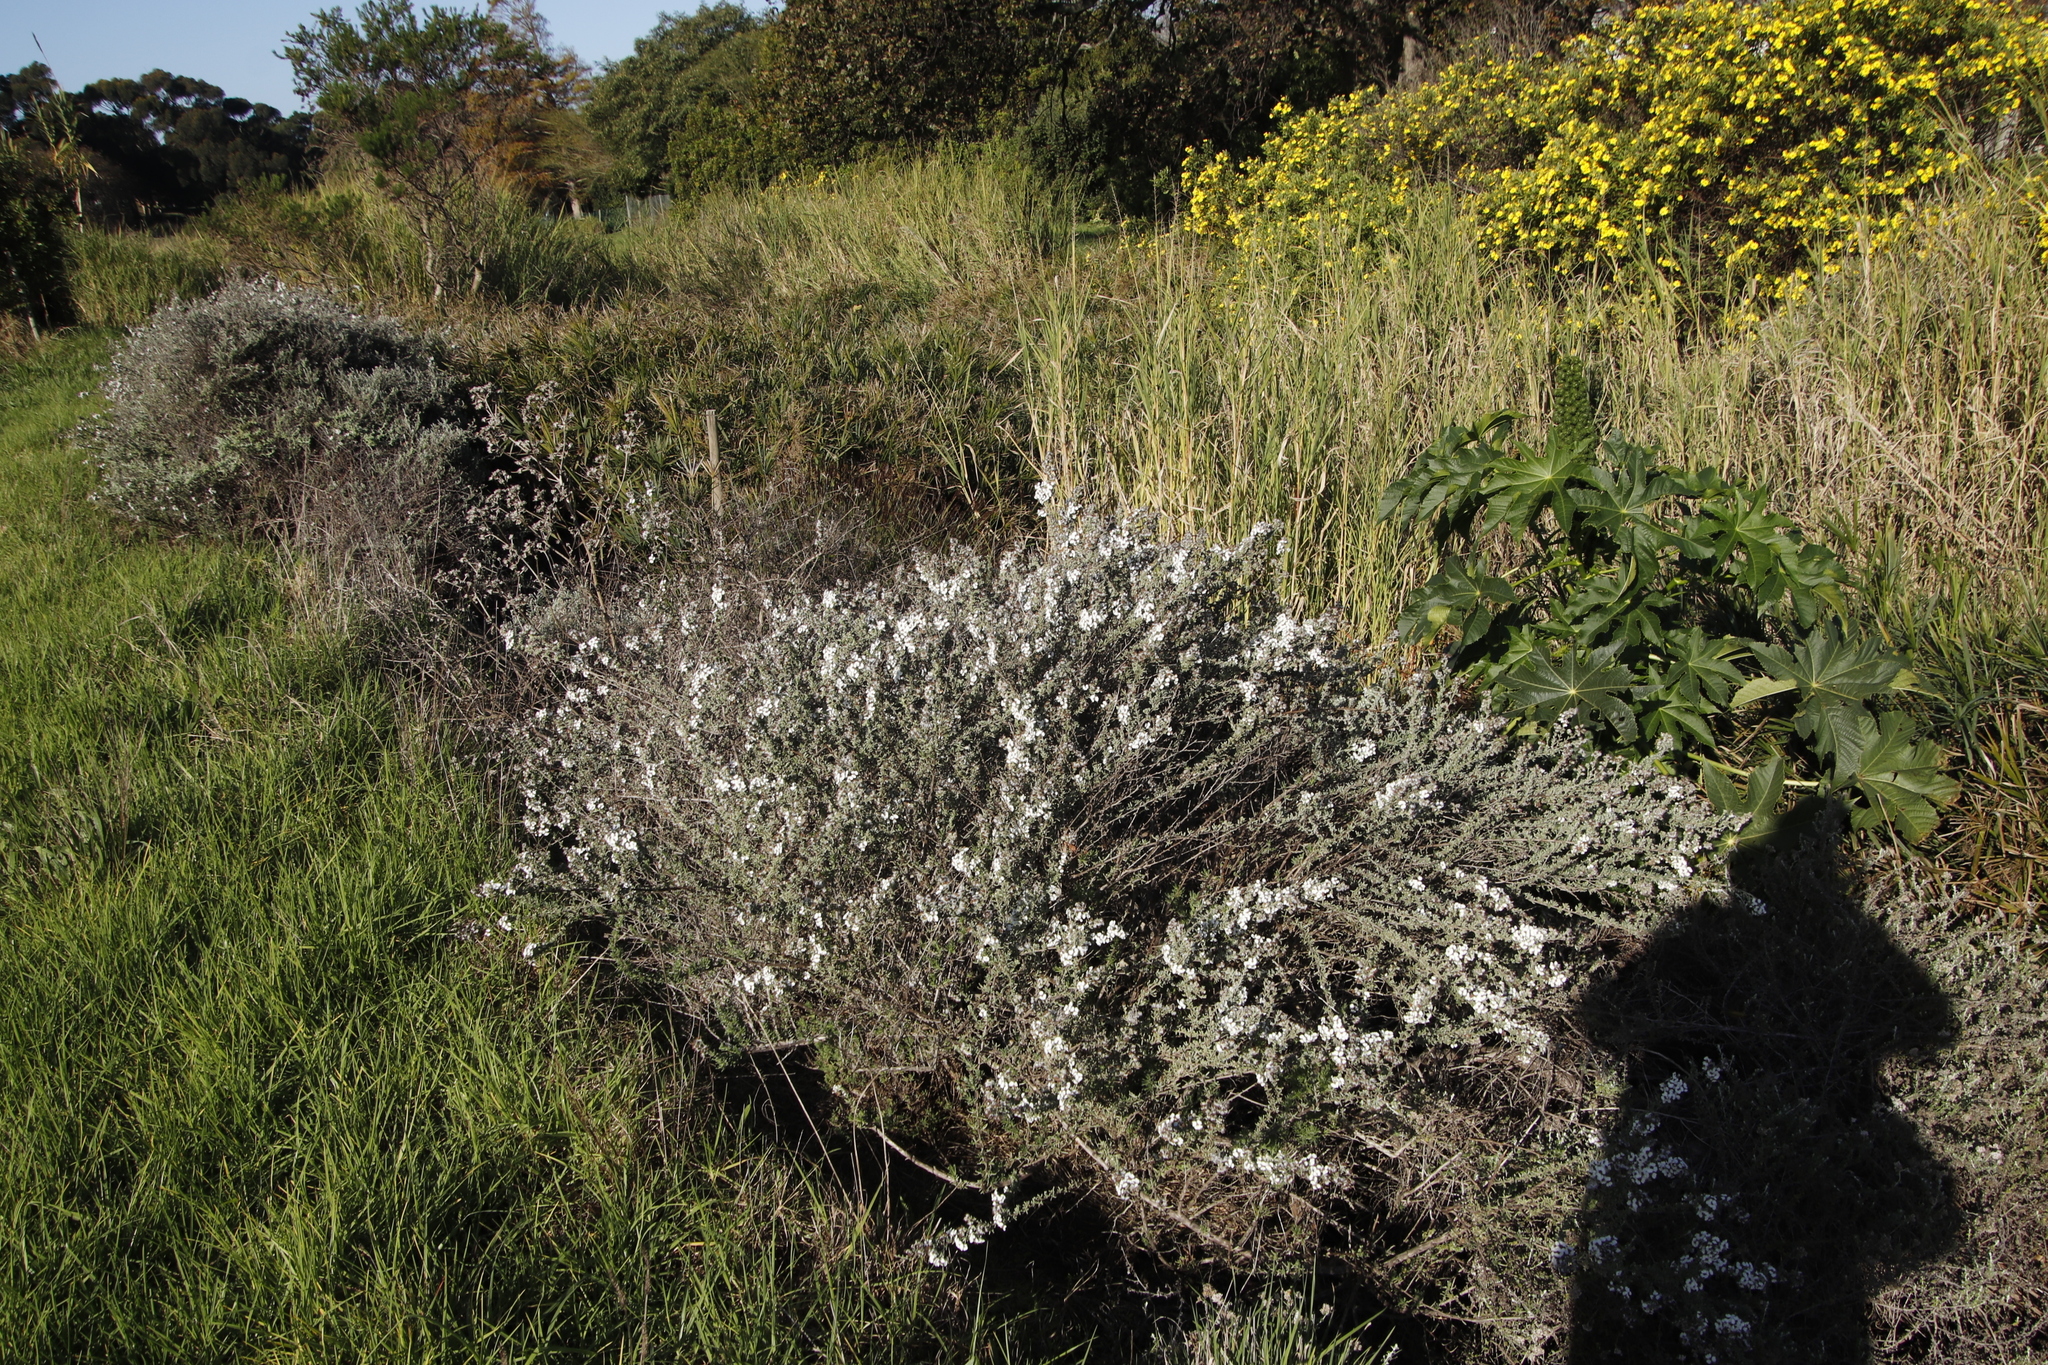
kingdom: Plantae
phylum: Tracheophyta
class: Magnoliopsida
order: Malpighiales
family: Euphorbiaceae
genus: Ricinus
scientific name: Ricinus communis
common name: Castor-oil-plant
